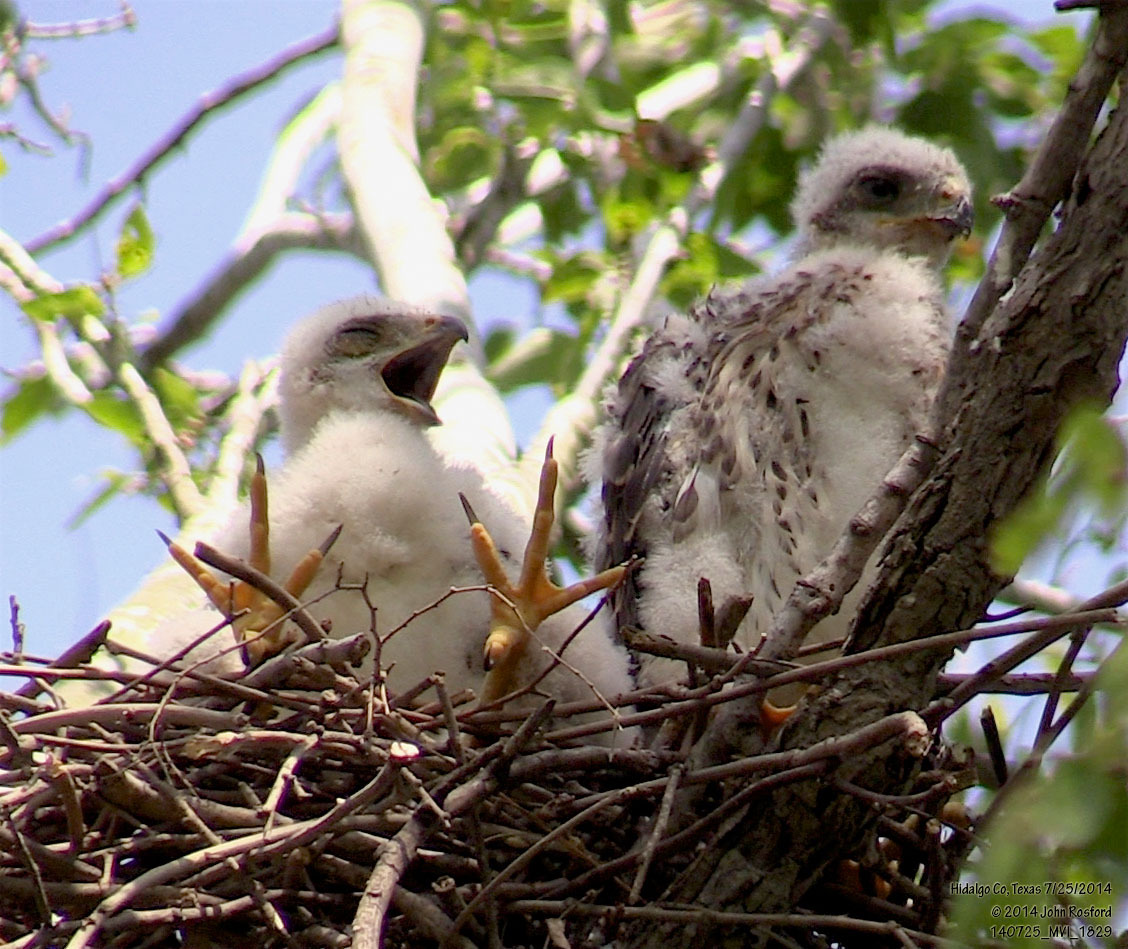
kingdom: Animalia
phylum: Chordata
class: Aves
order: Accipitriformes
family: Accipitridae
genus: Accipiter
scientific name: Accipiter cooperii
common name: Cooper's hawk
